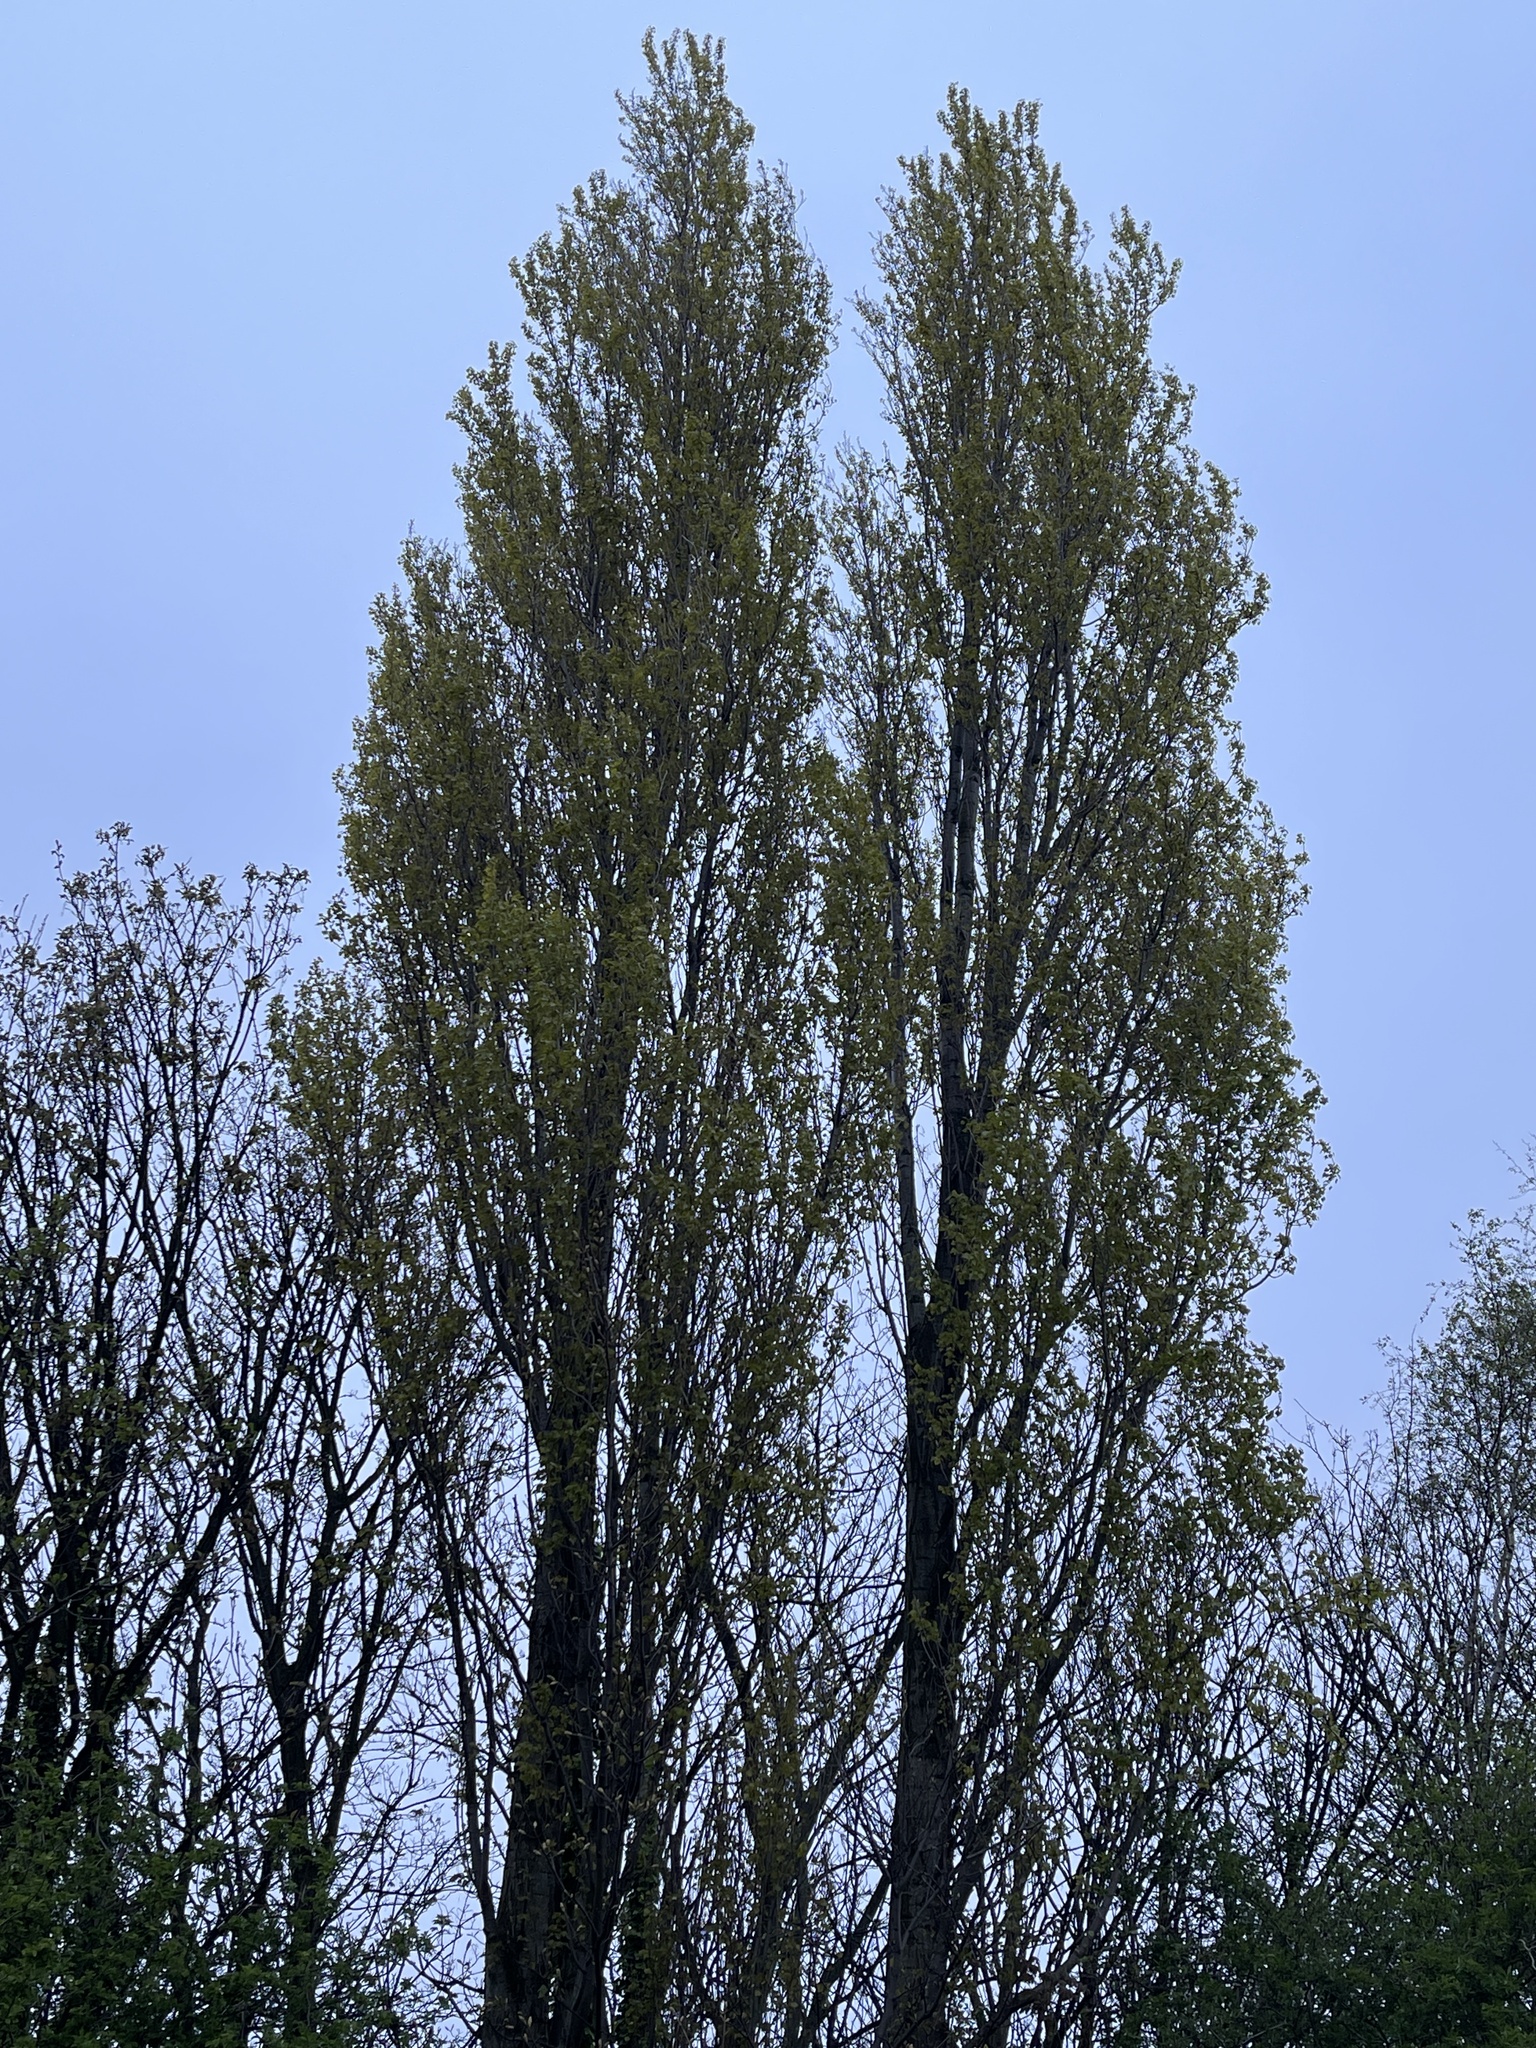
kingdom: Plantae
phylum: Tracheophyta
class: Magnoliopsida
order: Malpighiales
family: Salicaceae
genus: Populus
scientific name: Populus nigra
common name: Black poplar
